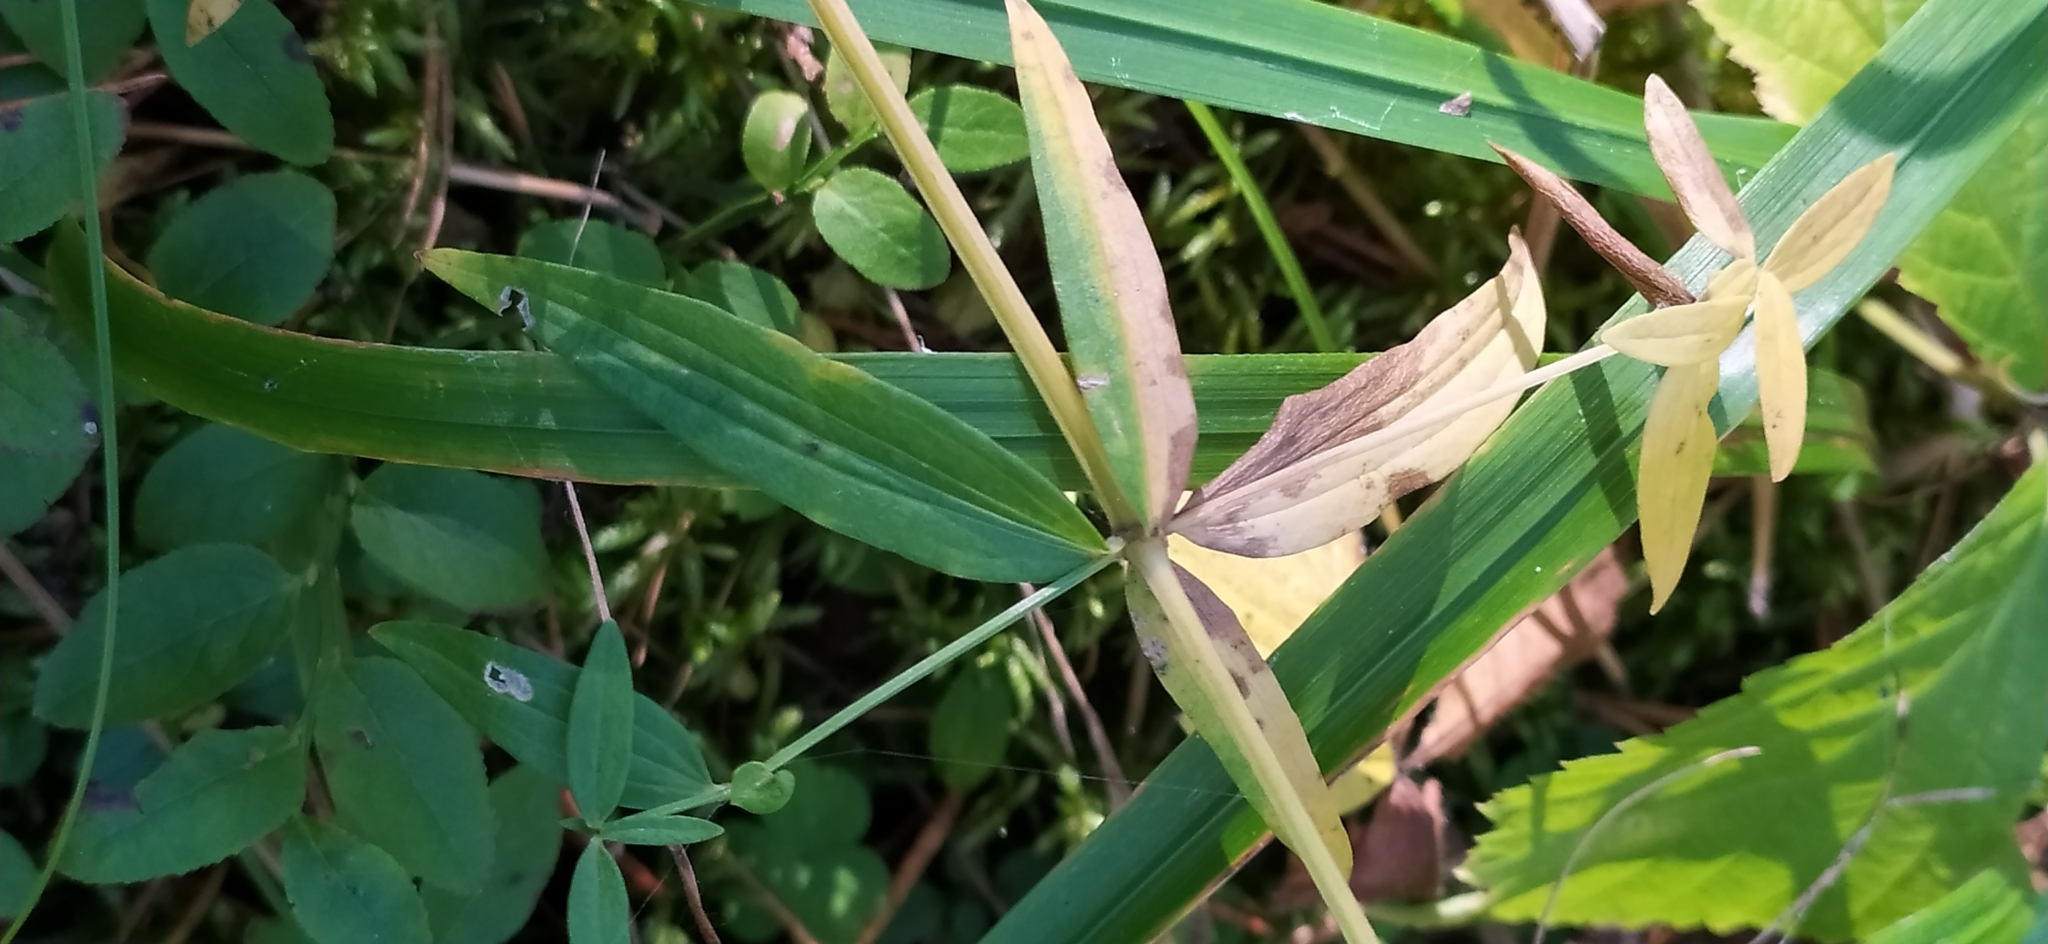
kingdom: Plantae
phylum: Tracheophyta
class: Magnoliopsida
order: Gentianales
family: Rubiaceae
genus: Galium
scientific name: Galium boreale
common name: Northern bedstraw
